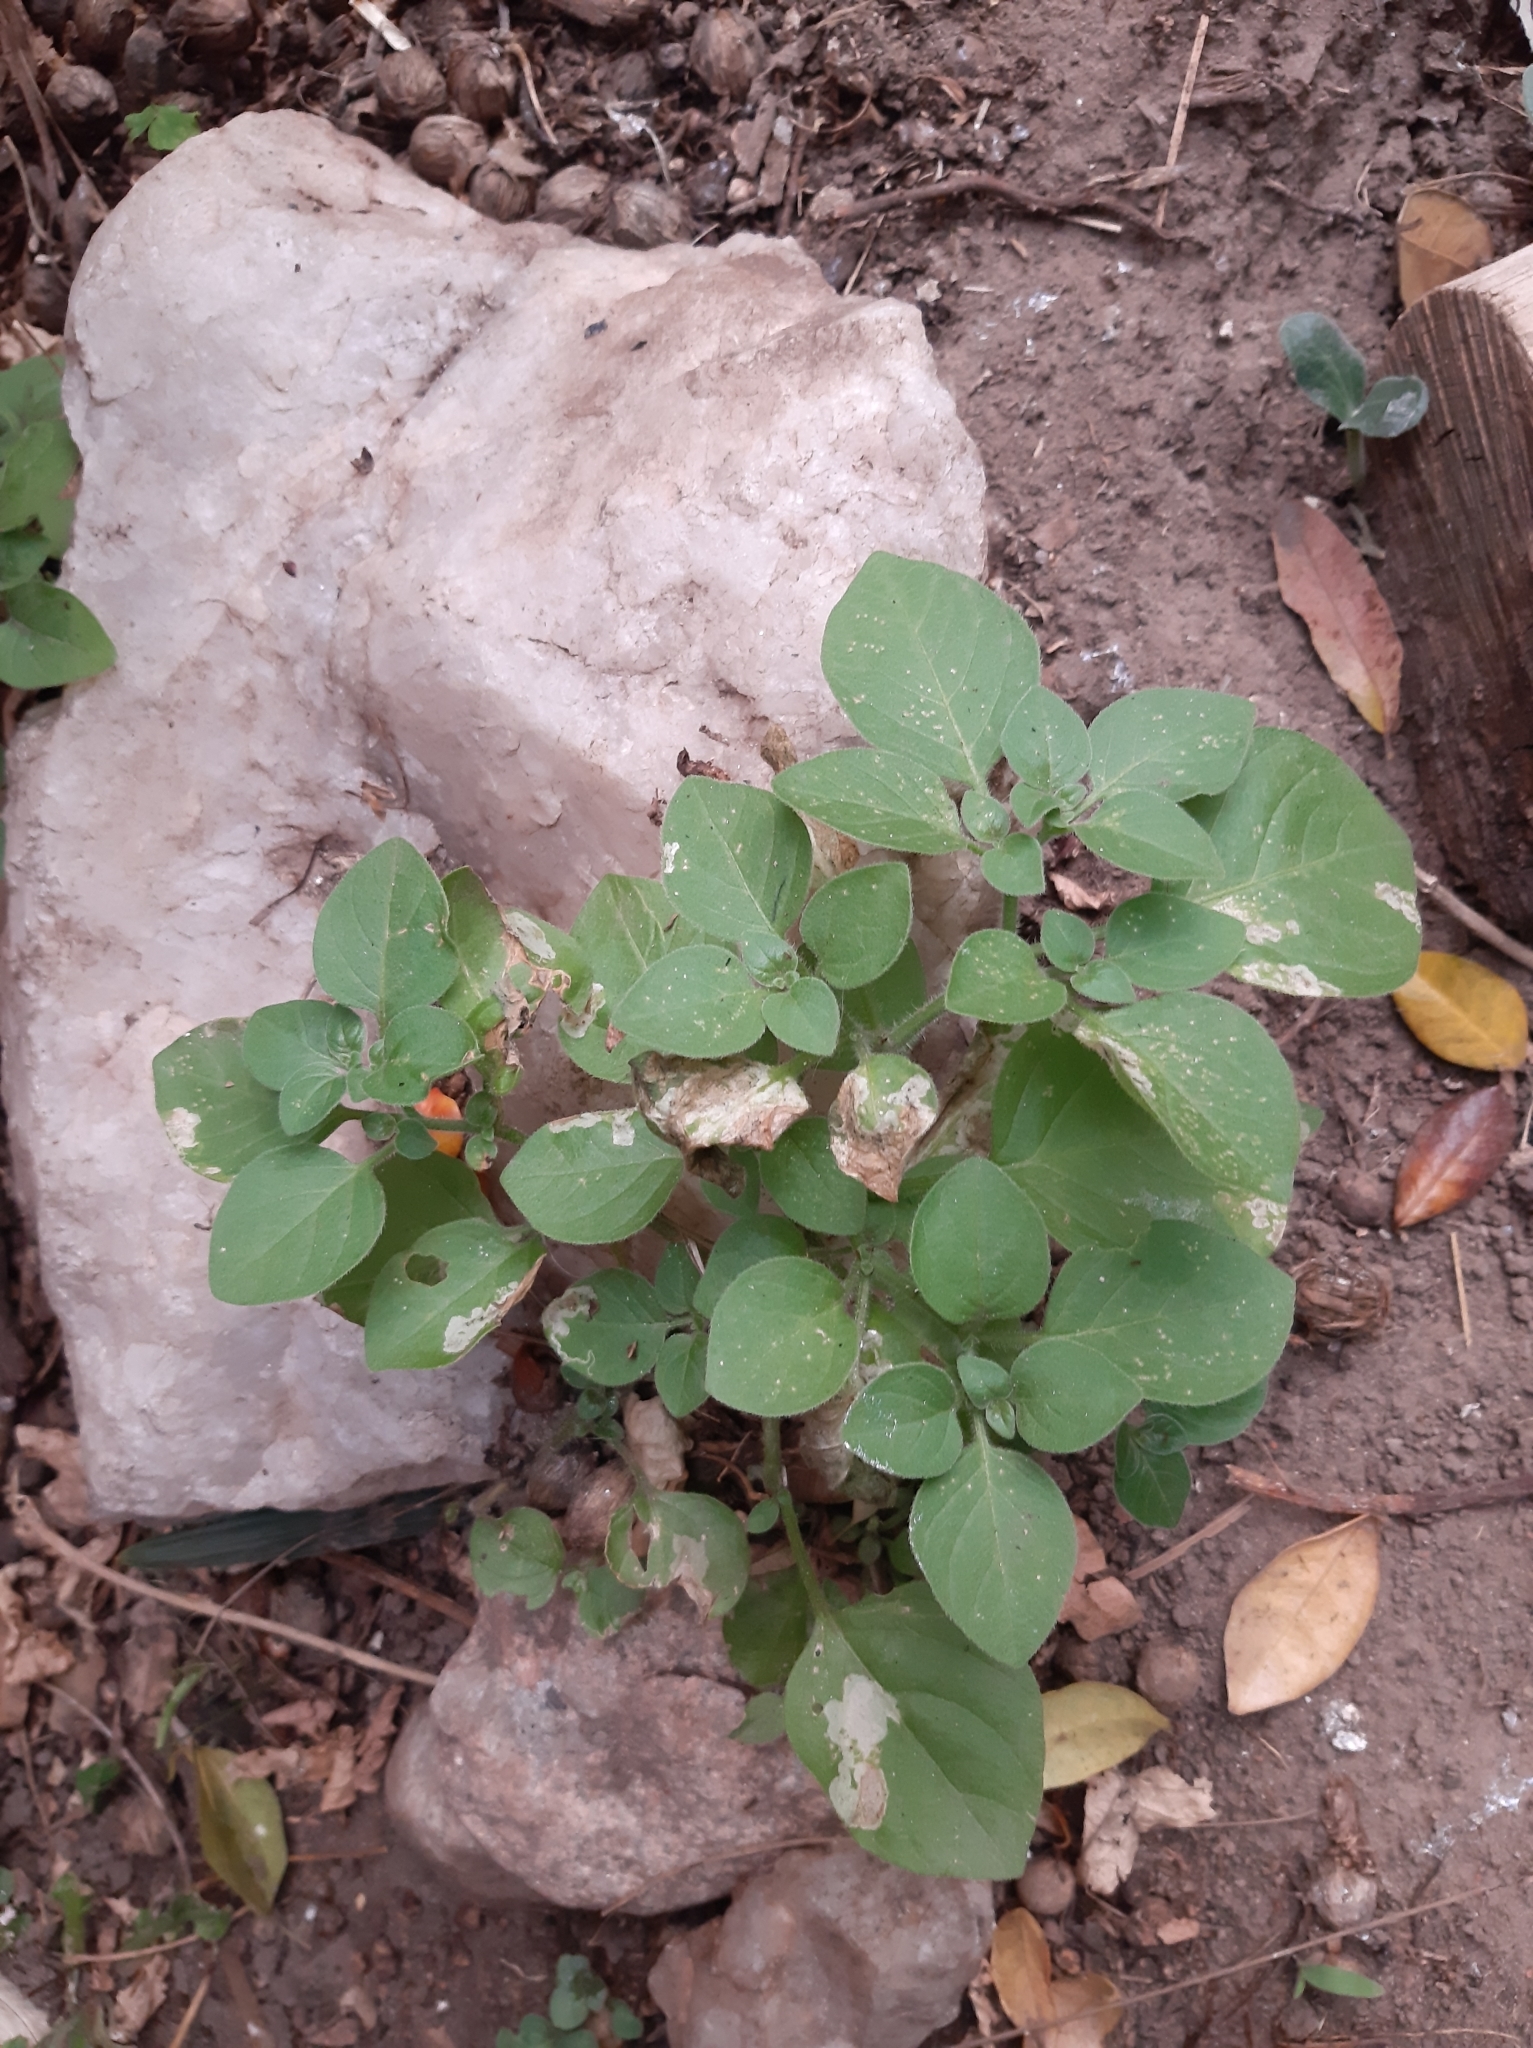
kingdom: Plantae
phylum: Tracheophyta
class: Magnoliopsida
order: Solanales
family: Solanaceae
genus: Salpichroa
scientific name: Salpichroa origanifolia
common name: Lily-of-the-valley-vine
